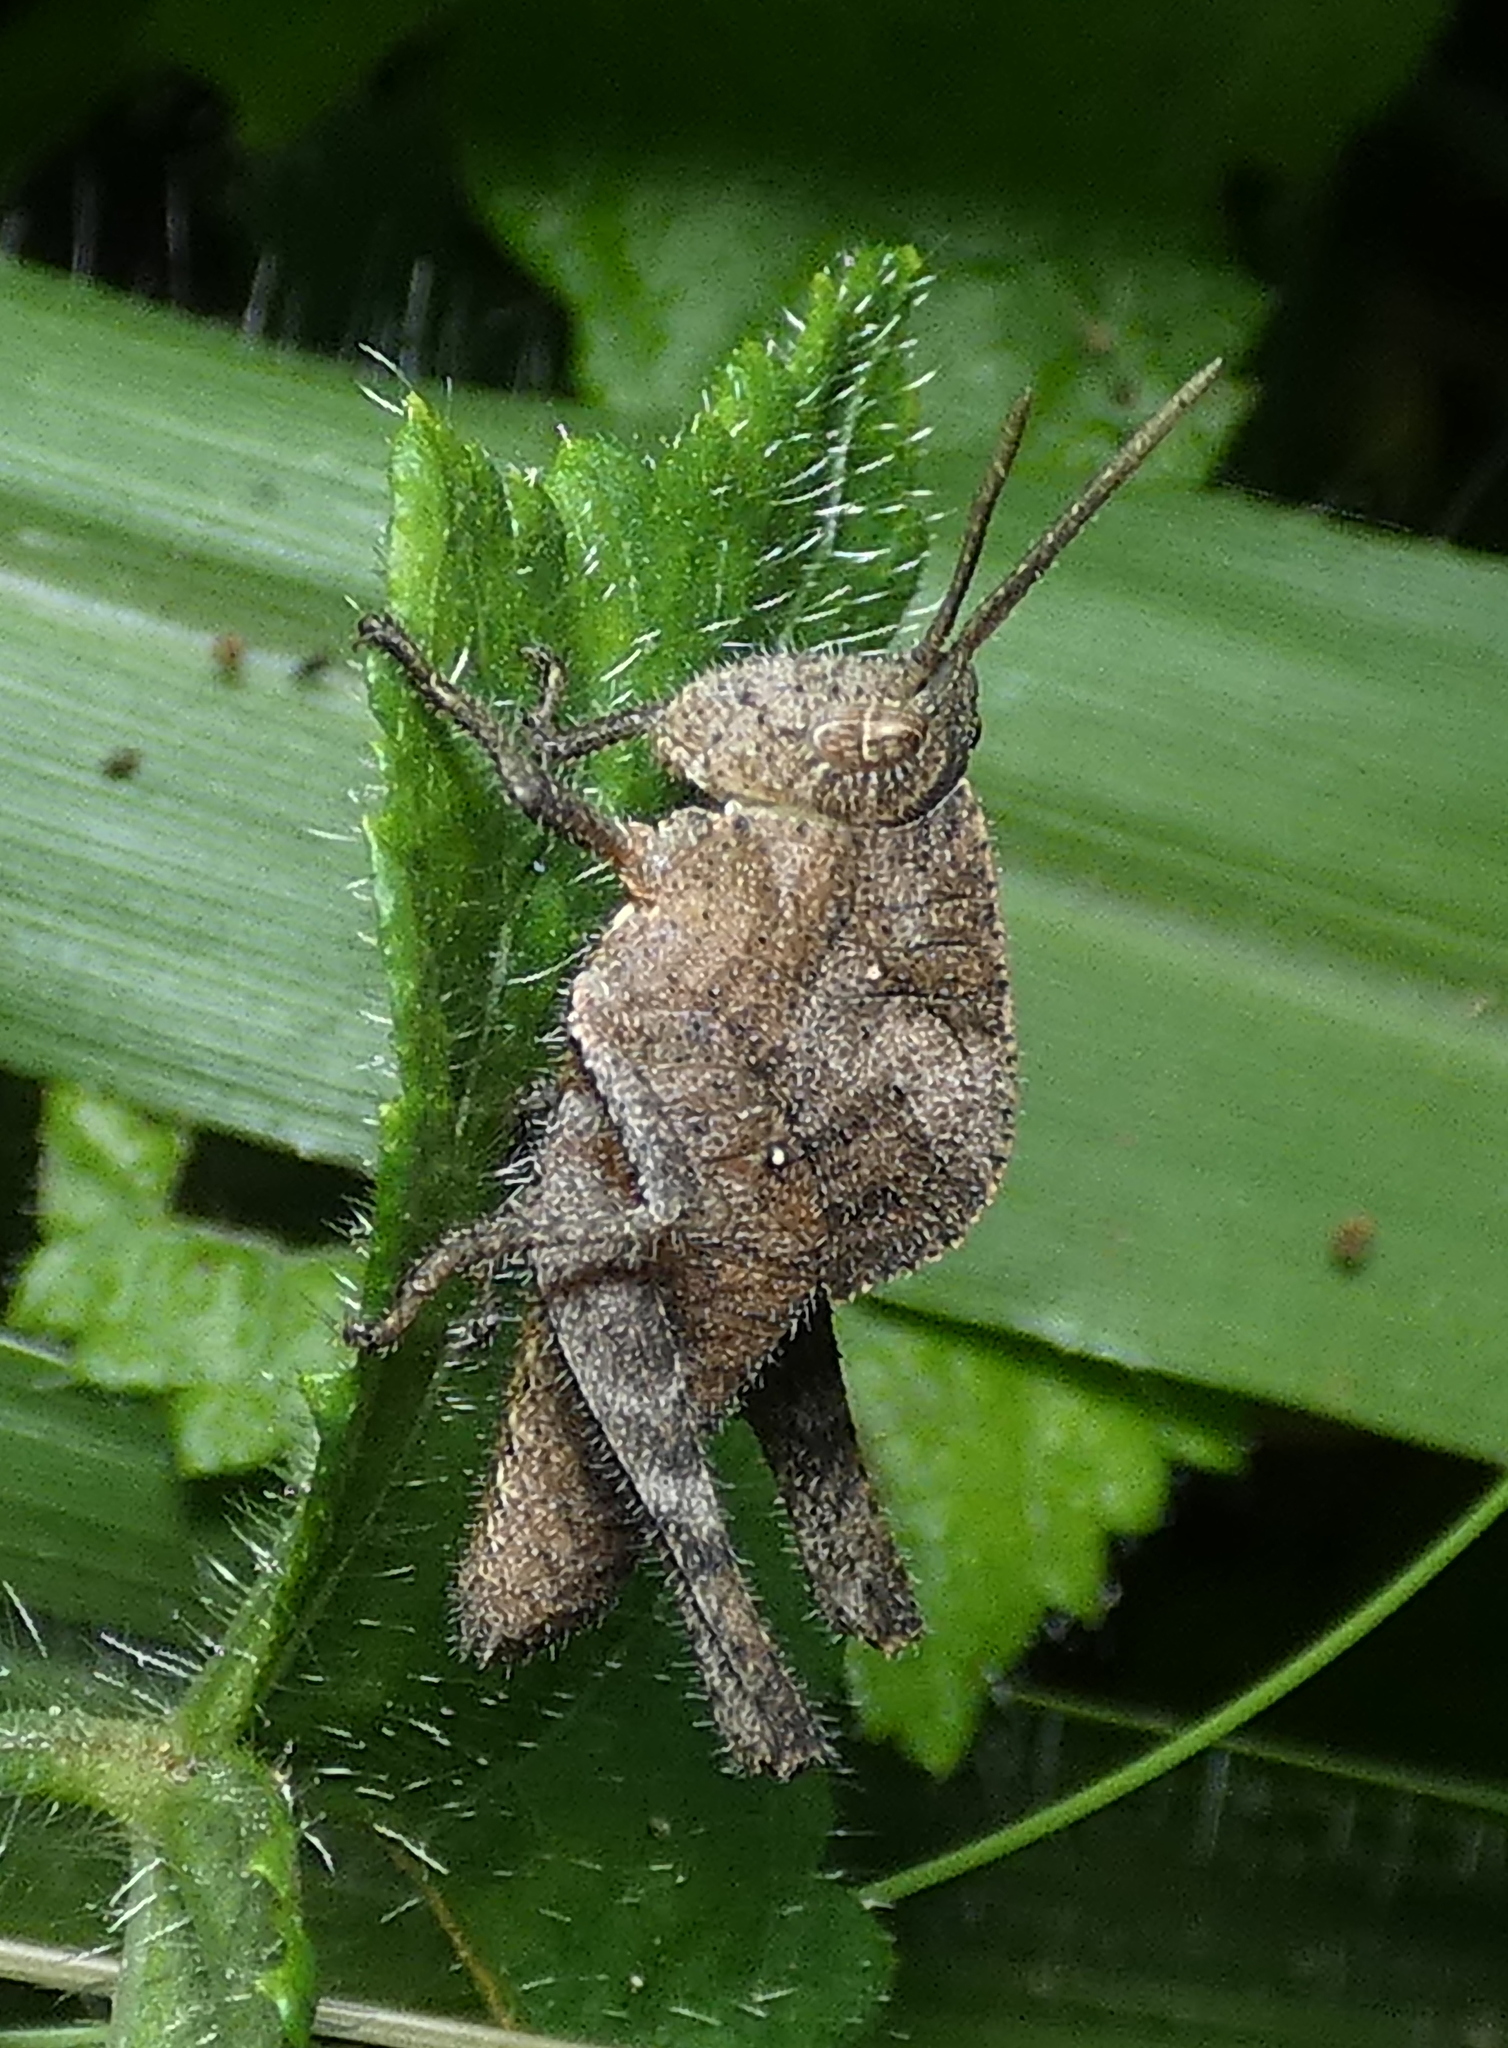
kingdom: Animalia
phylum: Arthropoda
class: Insecta
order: Orthoptera
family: Romaleidae
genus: Xyleus
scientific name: Xyleus discoideus
